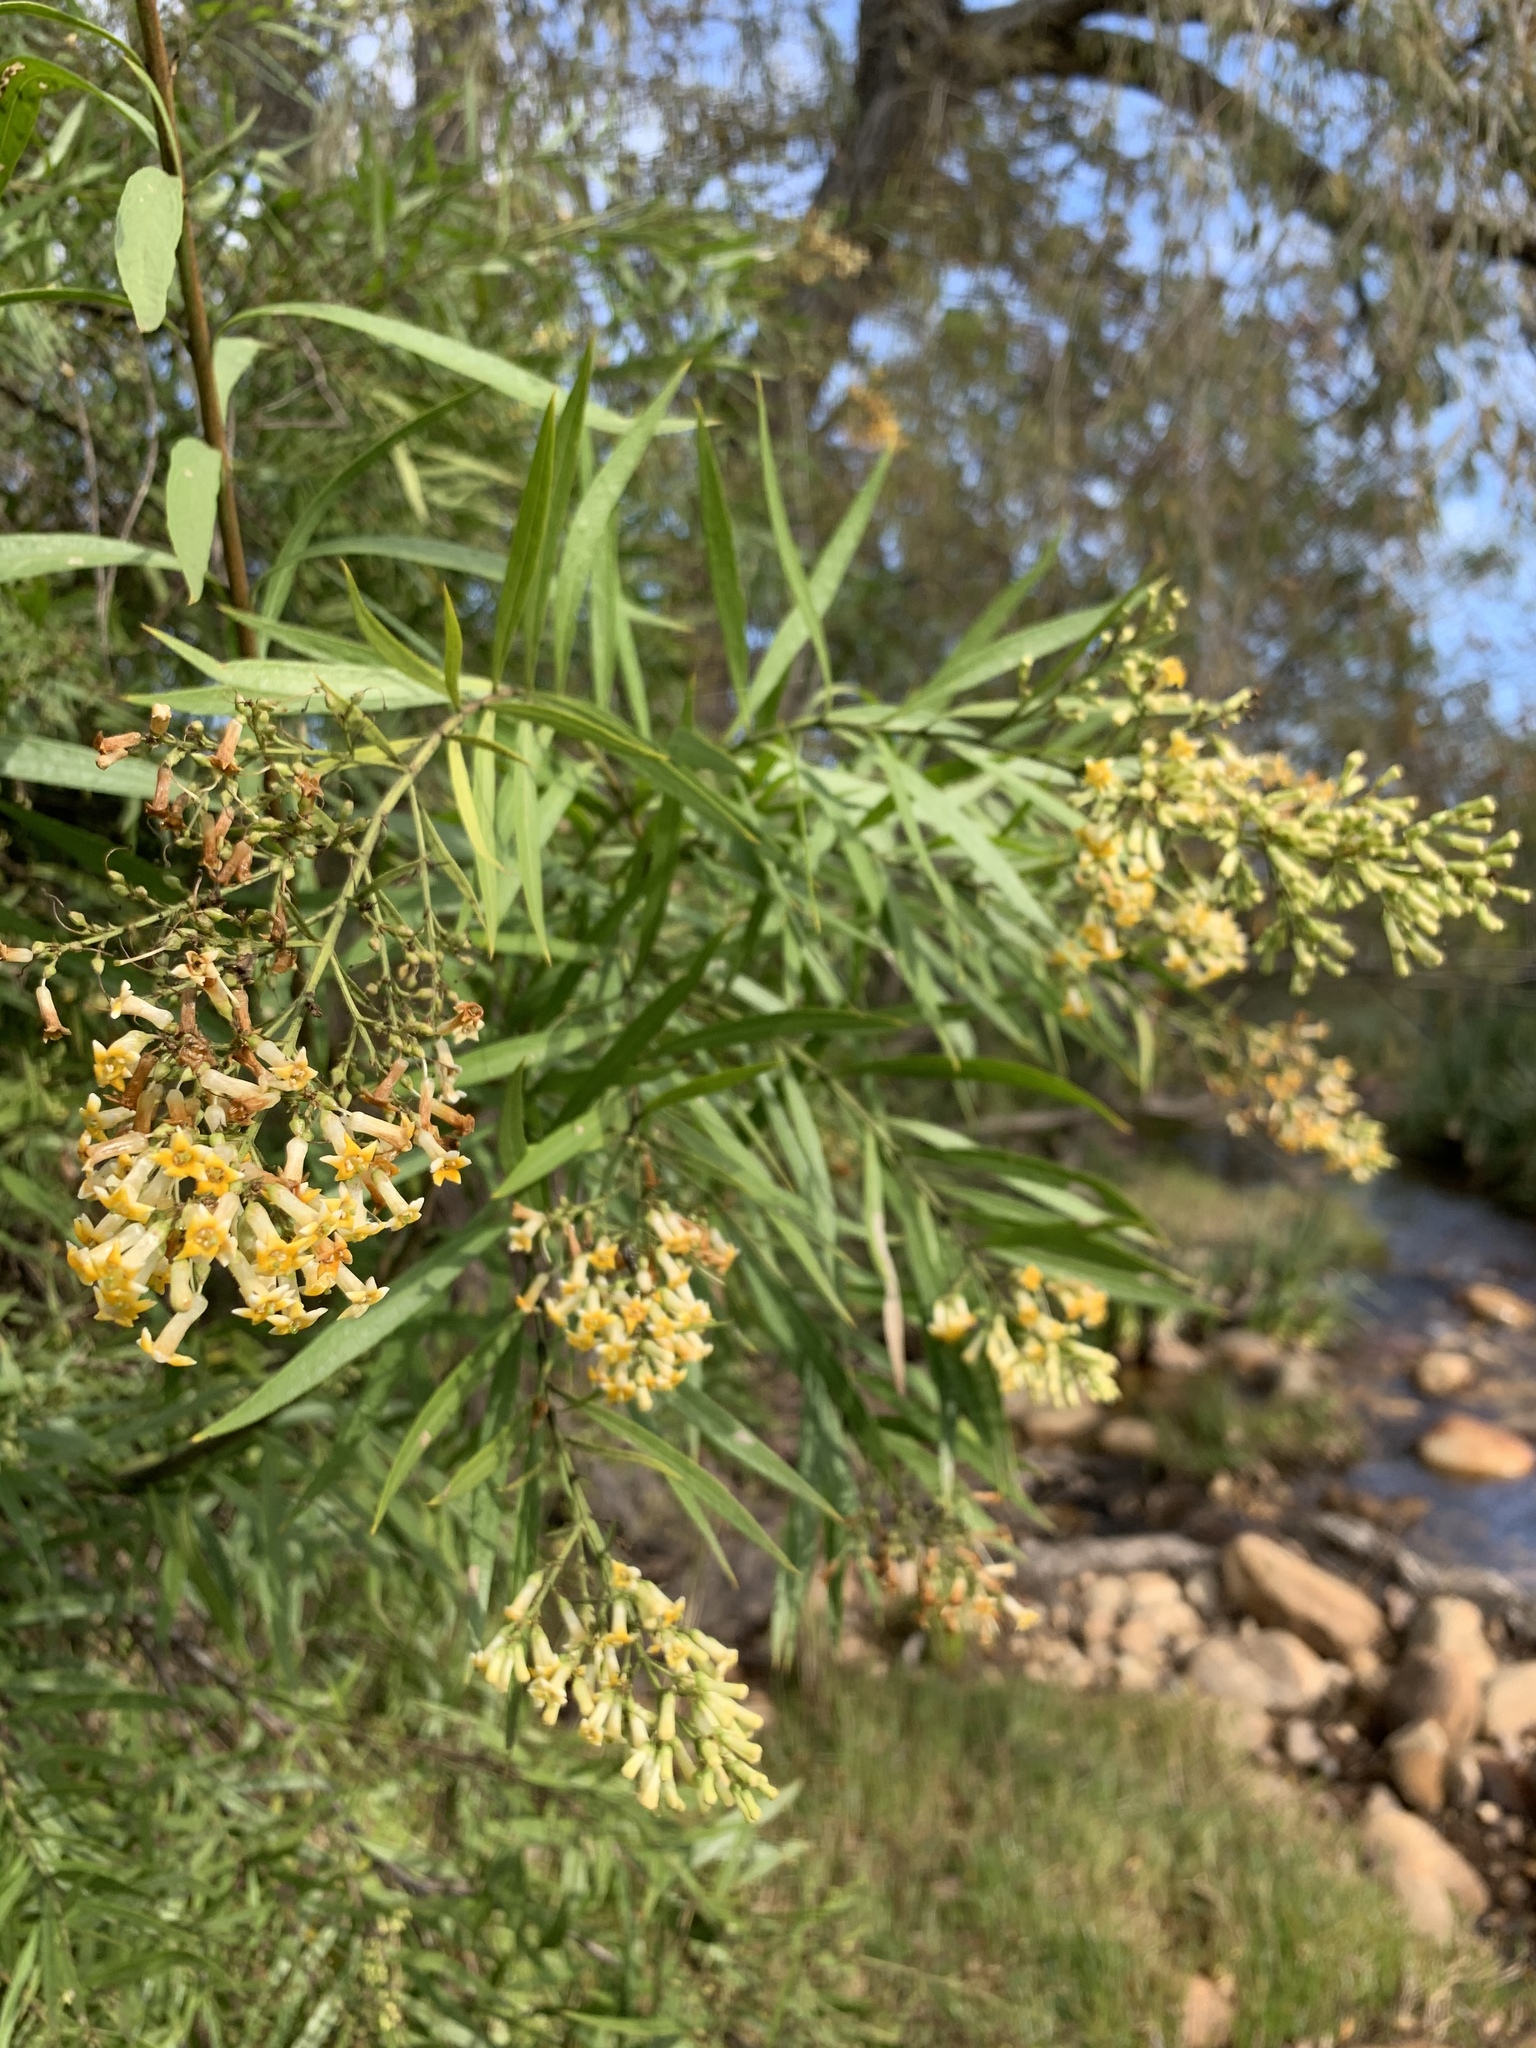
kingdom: Plantae
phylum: Tracheophyta
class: Magnoliopsida
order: Lamiales
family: Scrophulariaceae
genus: Freylinia
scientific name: Freylinia lanceolata
